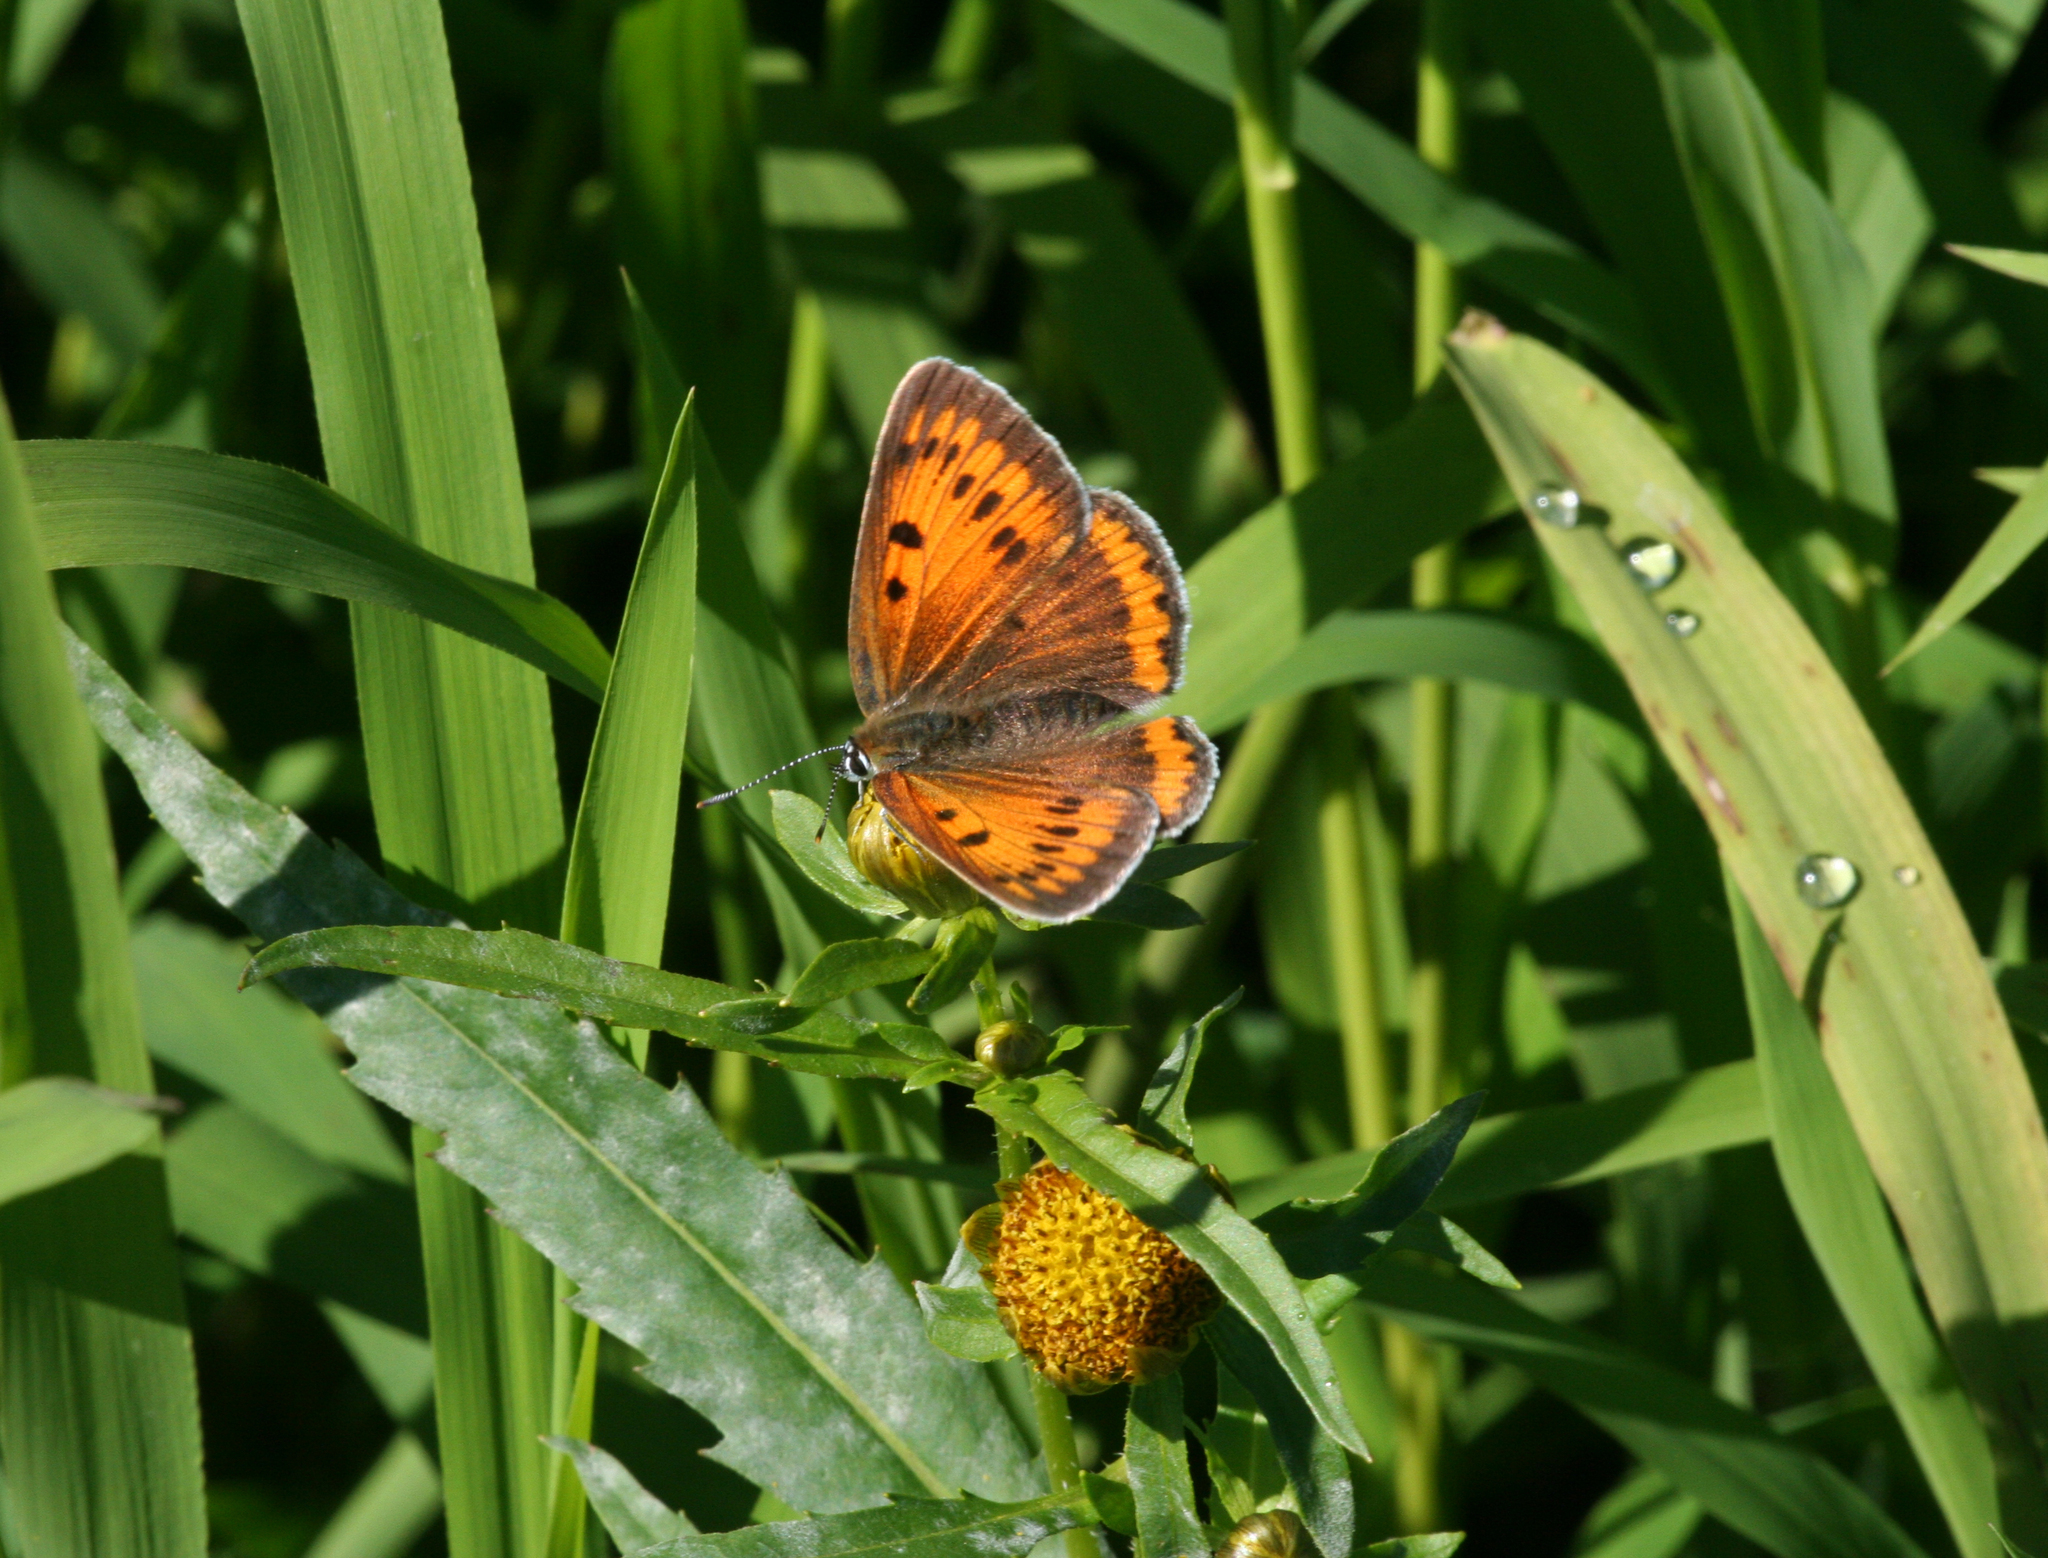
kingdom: Plantae
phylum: Tracheophyta
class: Magnoliopsida
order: Asterales
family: Asteraceae
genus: Bidens
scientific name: Bidens cernua
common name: Nodding bur-marigold
